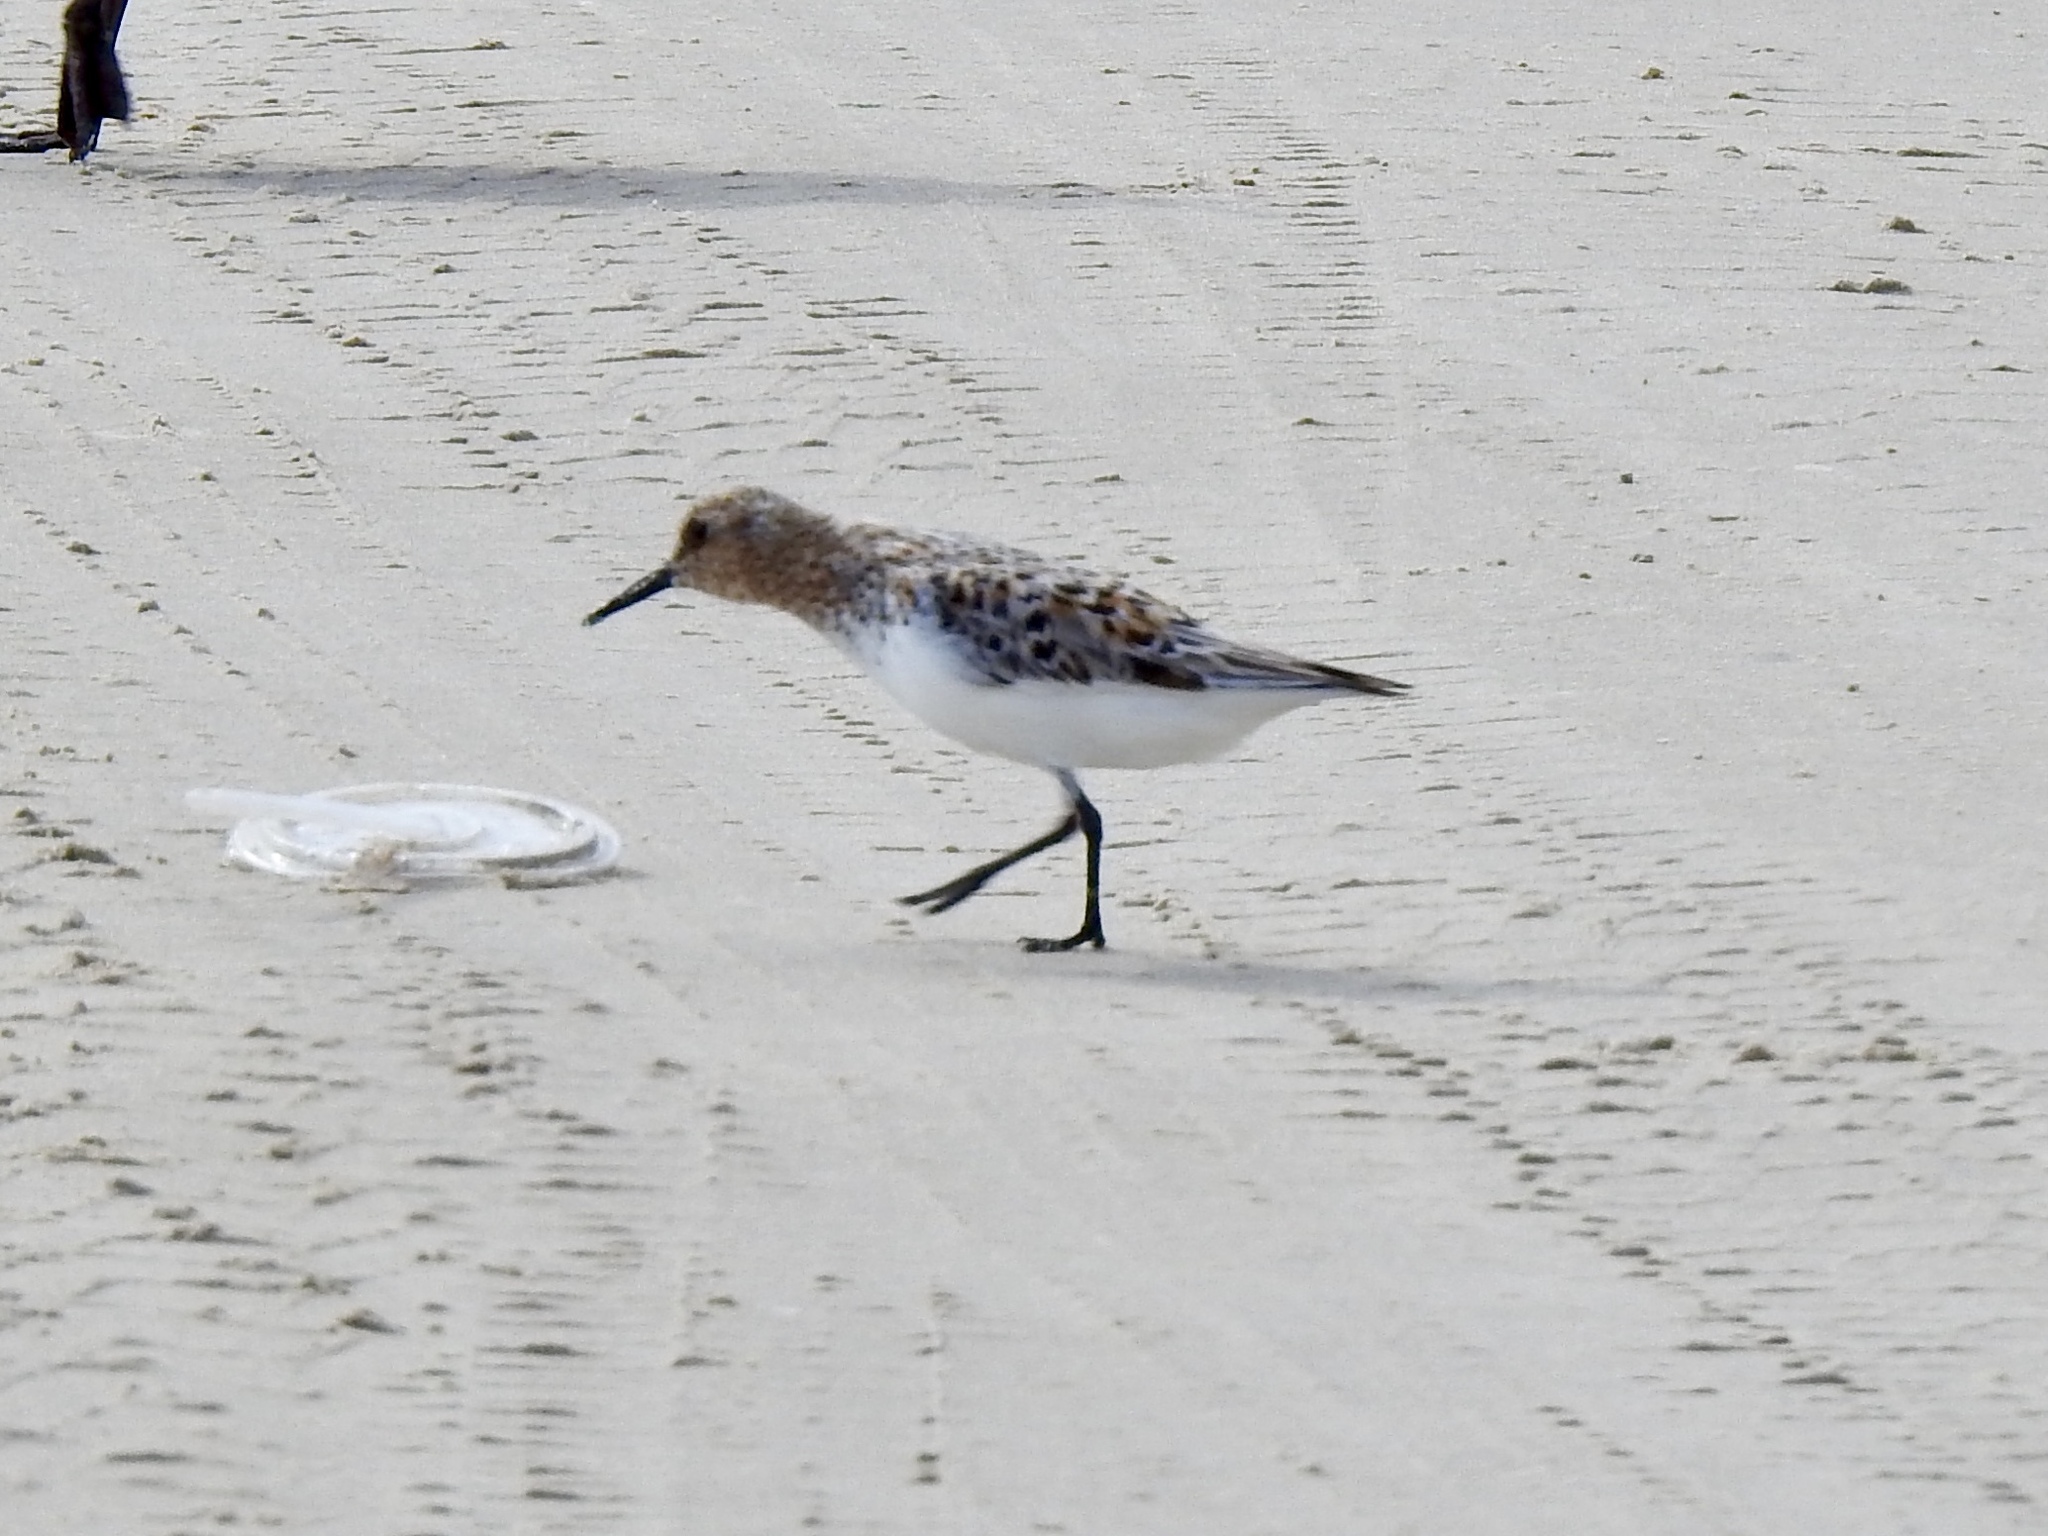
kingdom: Animalia
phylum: Chordata
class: Aves
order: Charadriiformes
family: Scolopacidae
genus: Calidris
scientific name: Calidris alba
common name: Sanderling
